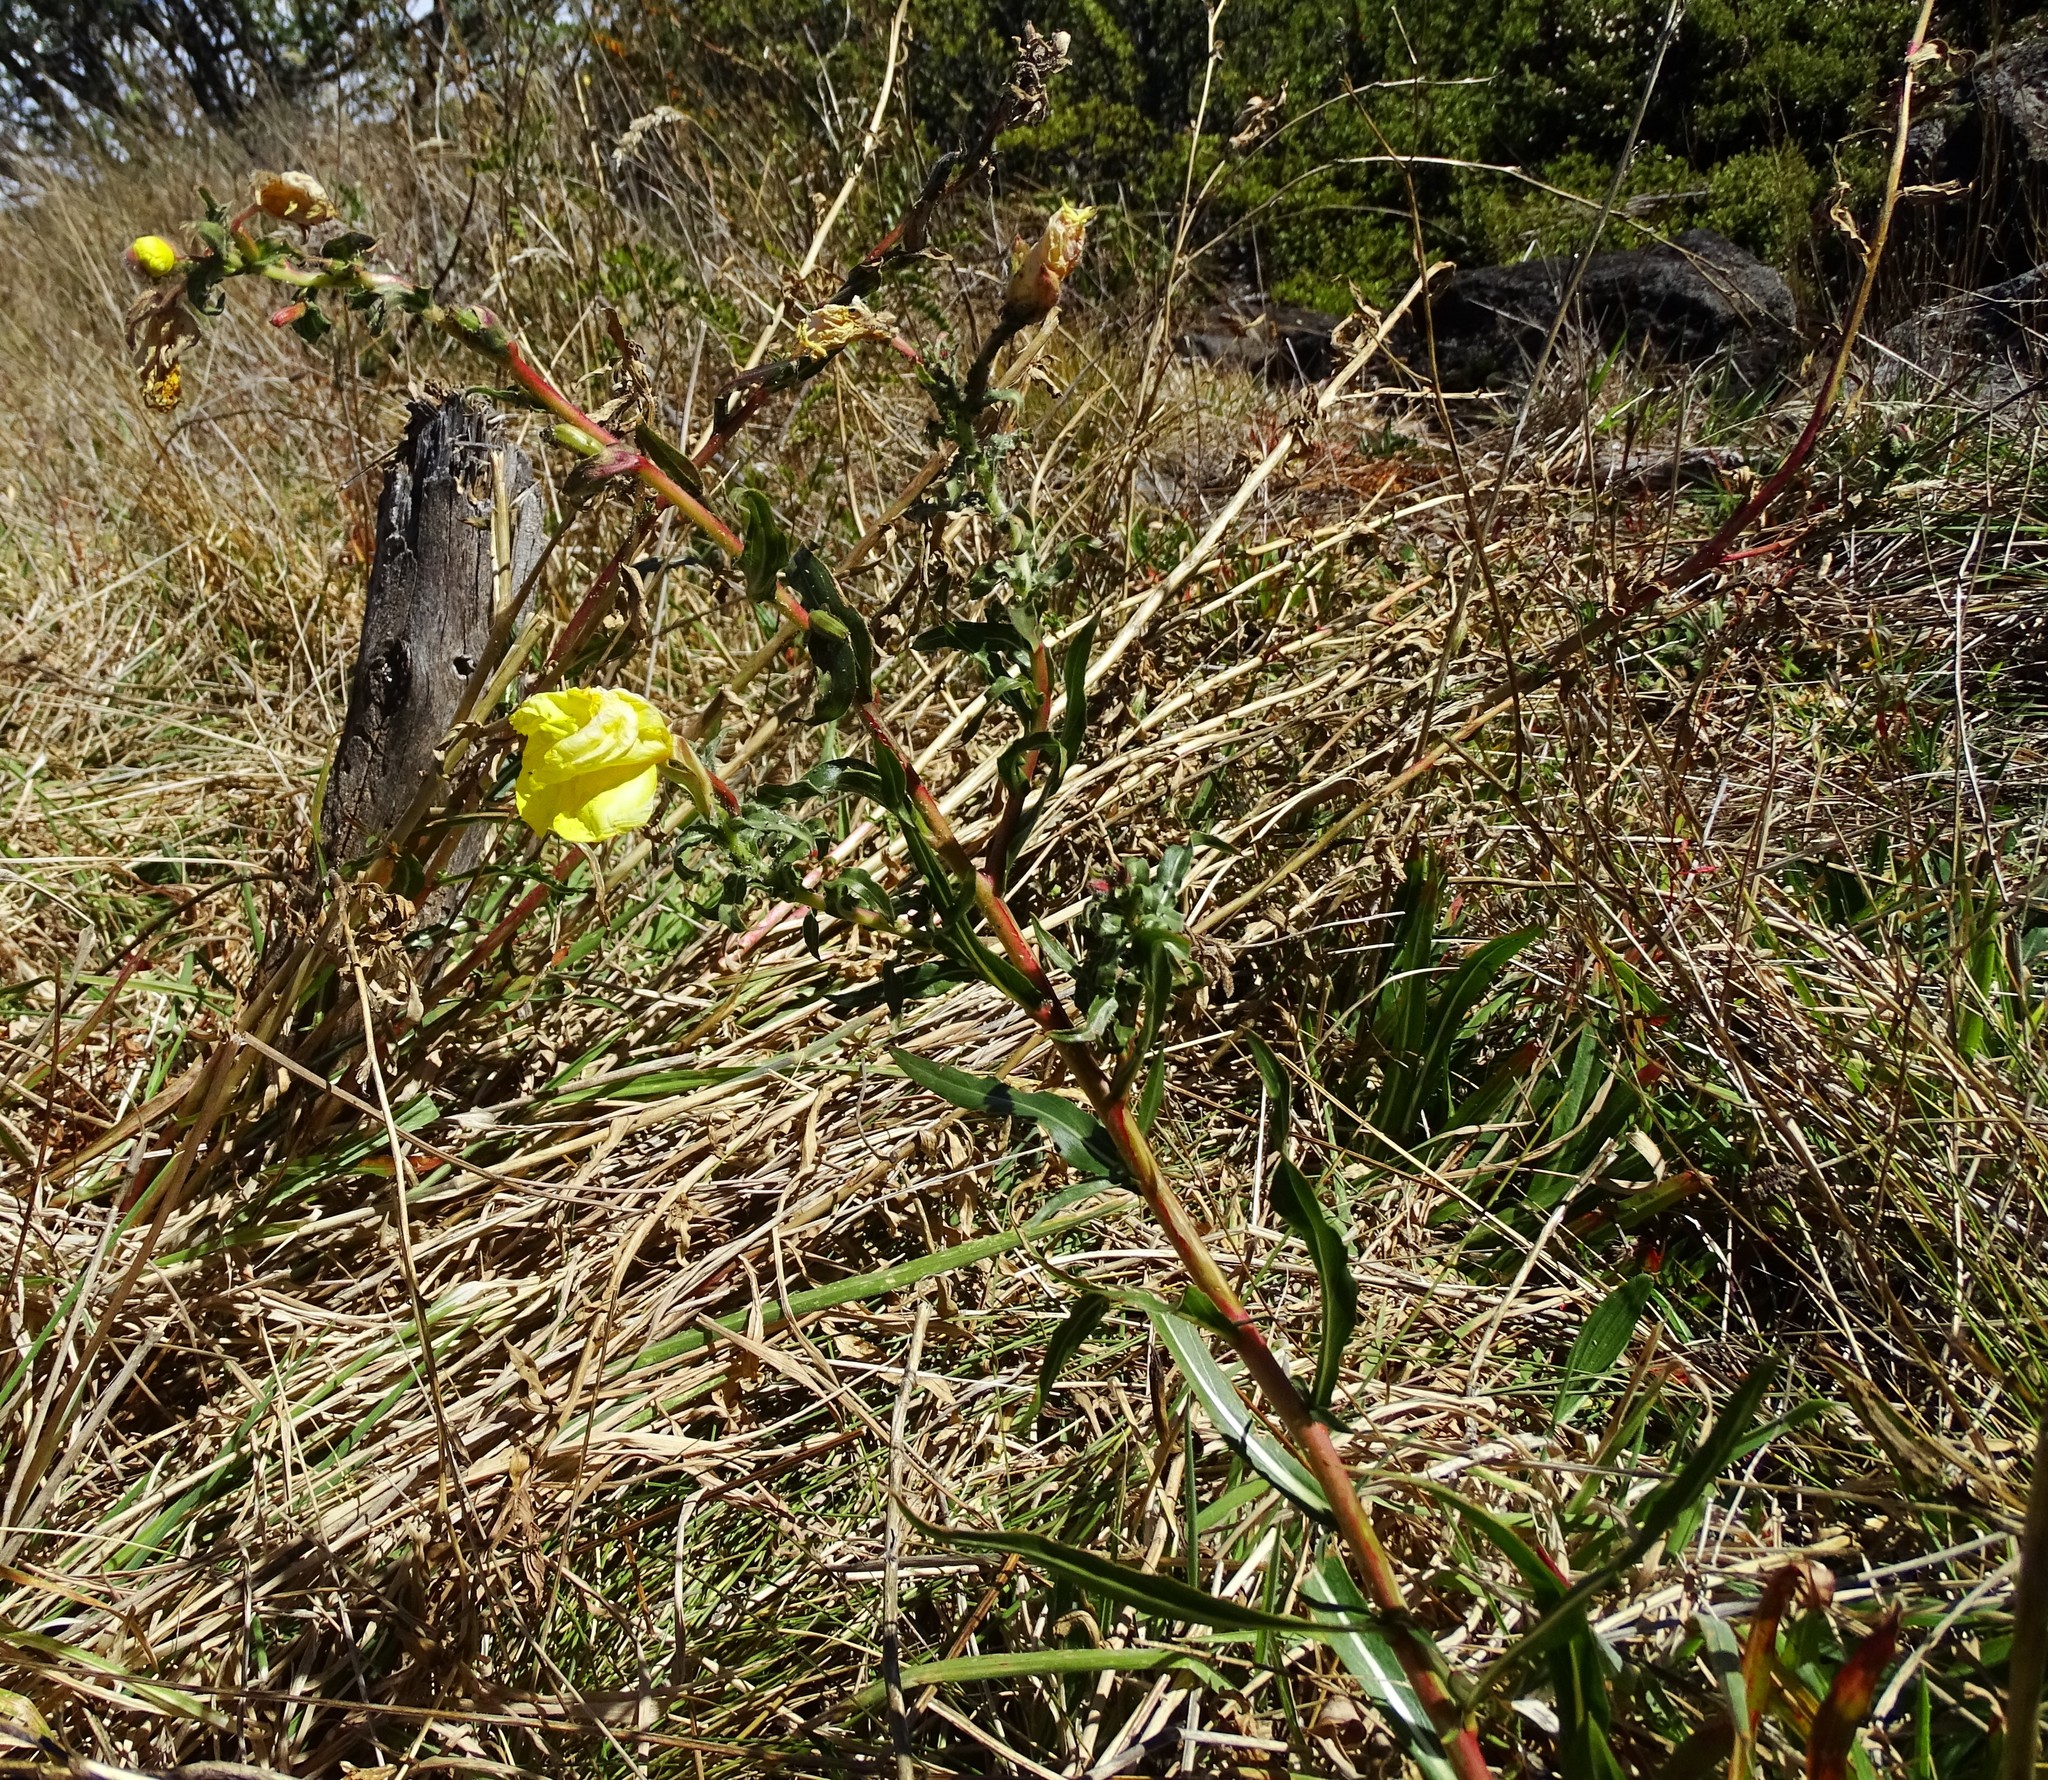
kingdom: Plantae
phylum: Tracheophyta
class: Magnoliopsida
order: Myrtales
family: Onagraceae
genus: Oenothera
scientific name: Oenothera stricta
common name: Fragrant evening-primrose
